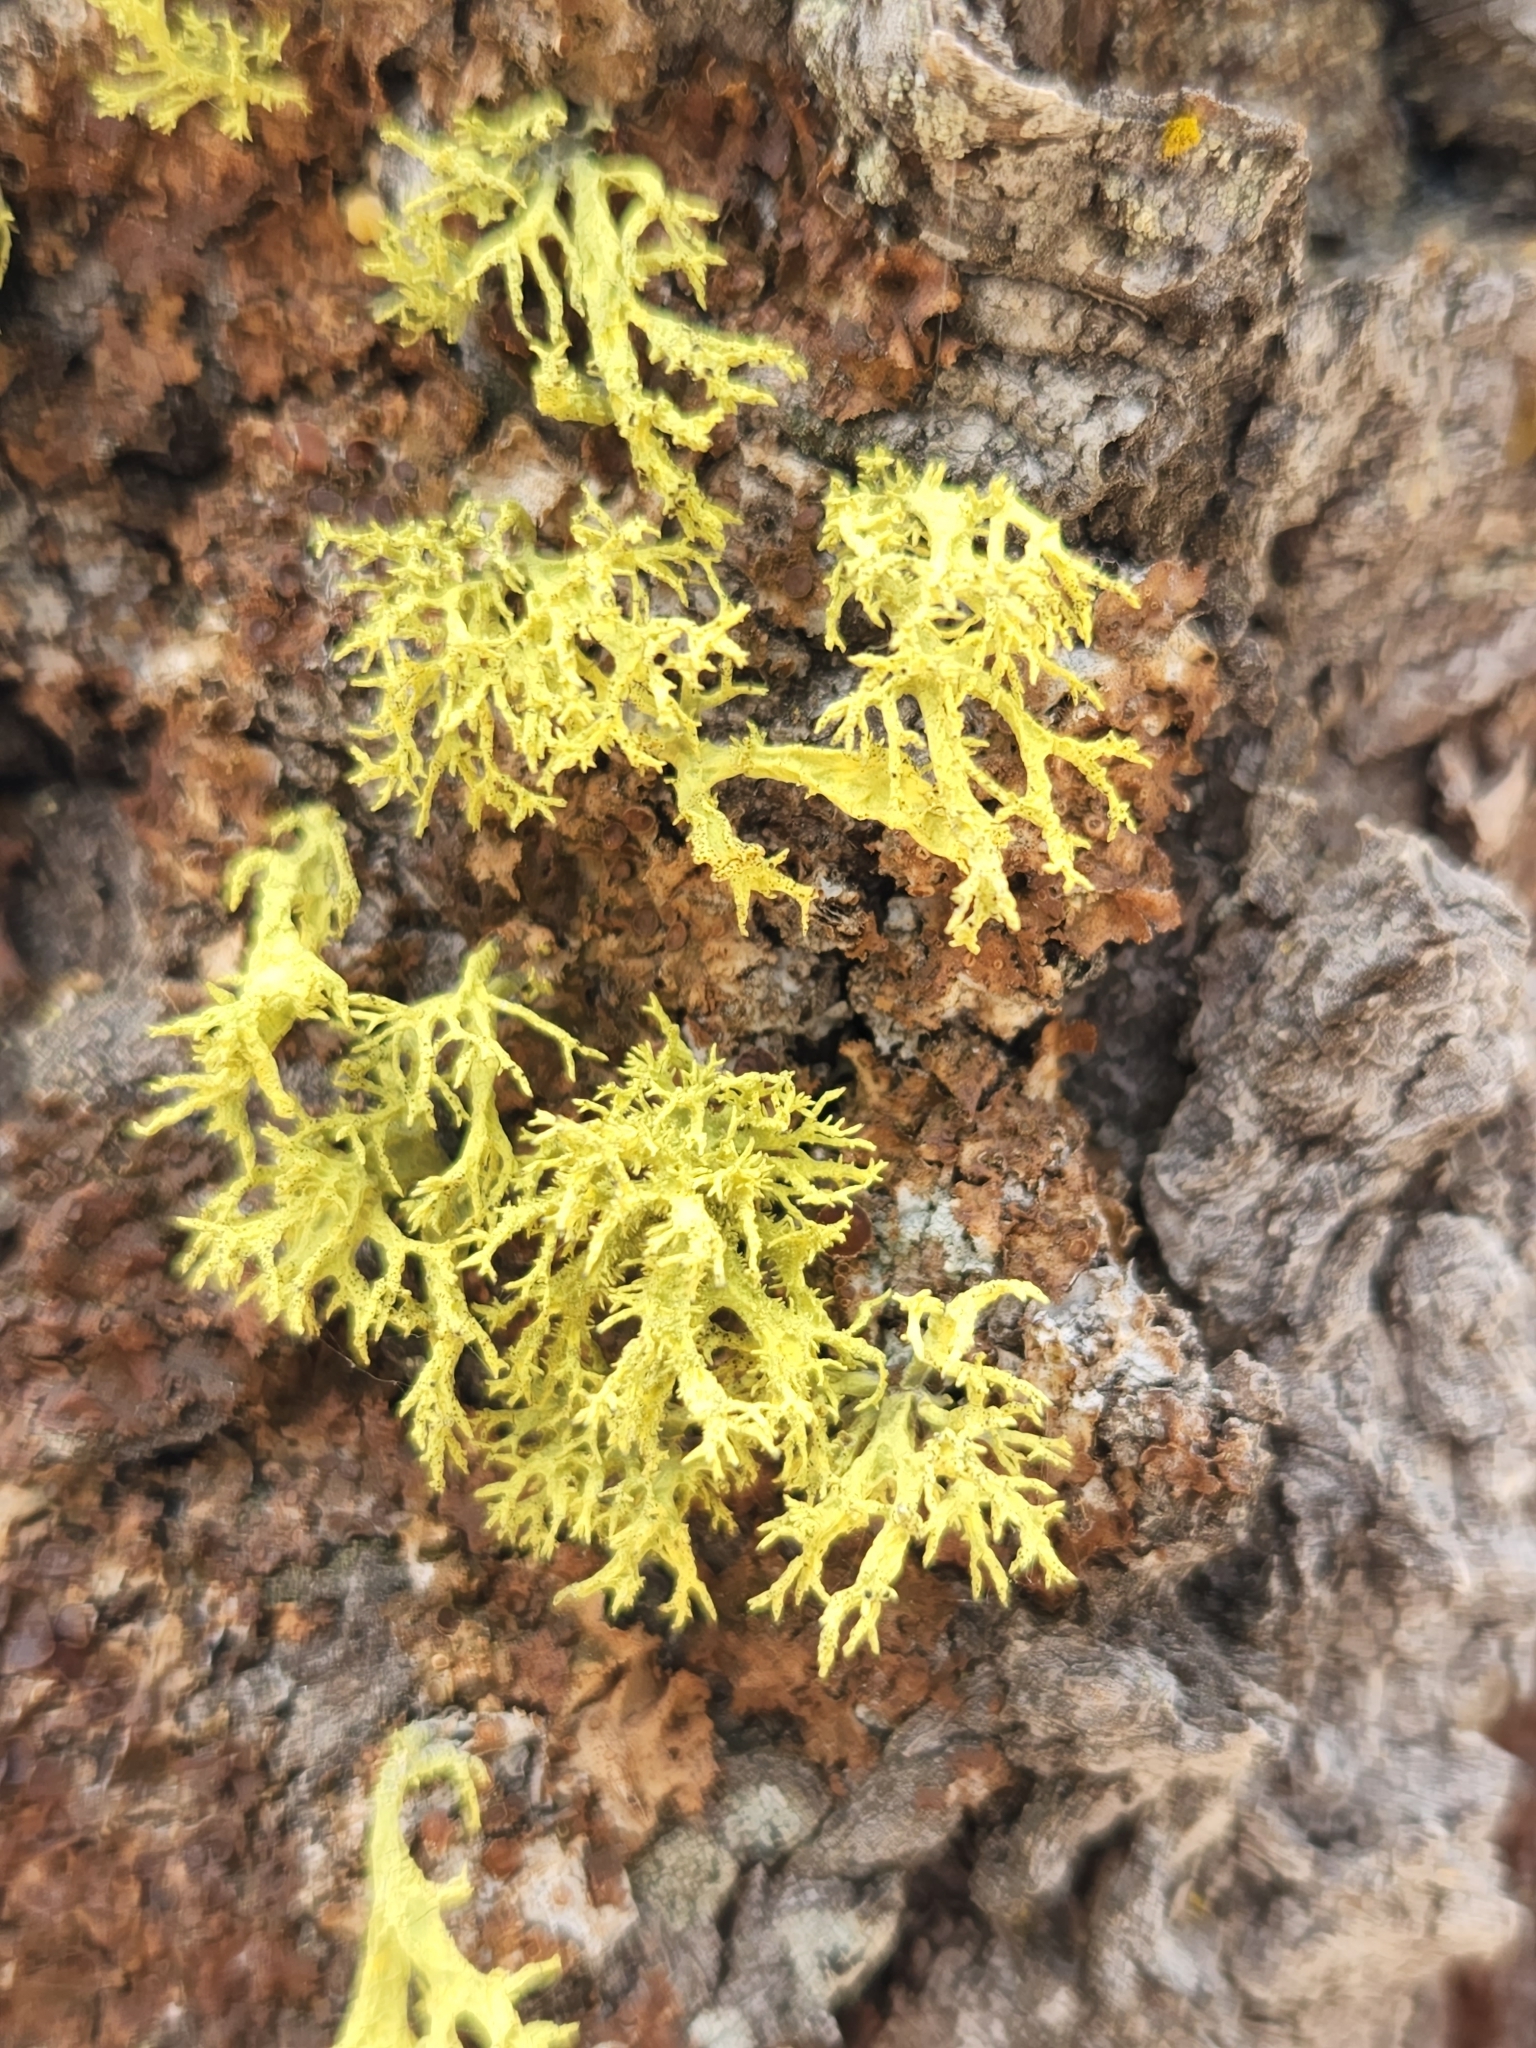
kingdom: Fungi
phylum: Ascomycota
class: Lecanoromycetes
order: Lecanorales
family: Parmeliaceae
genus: Letharia
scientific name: Letharia columbiana
